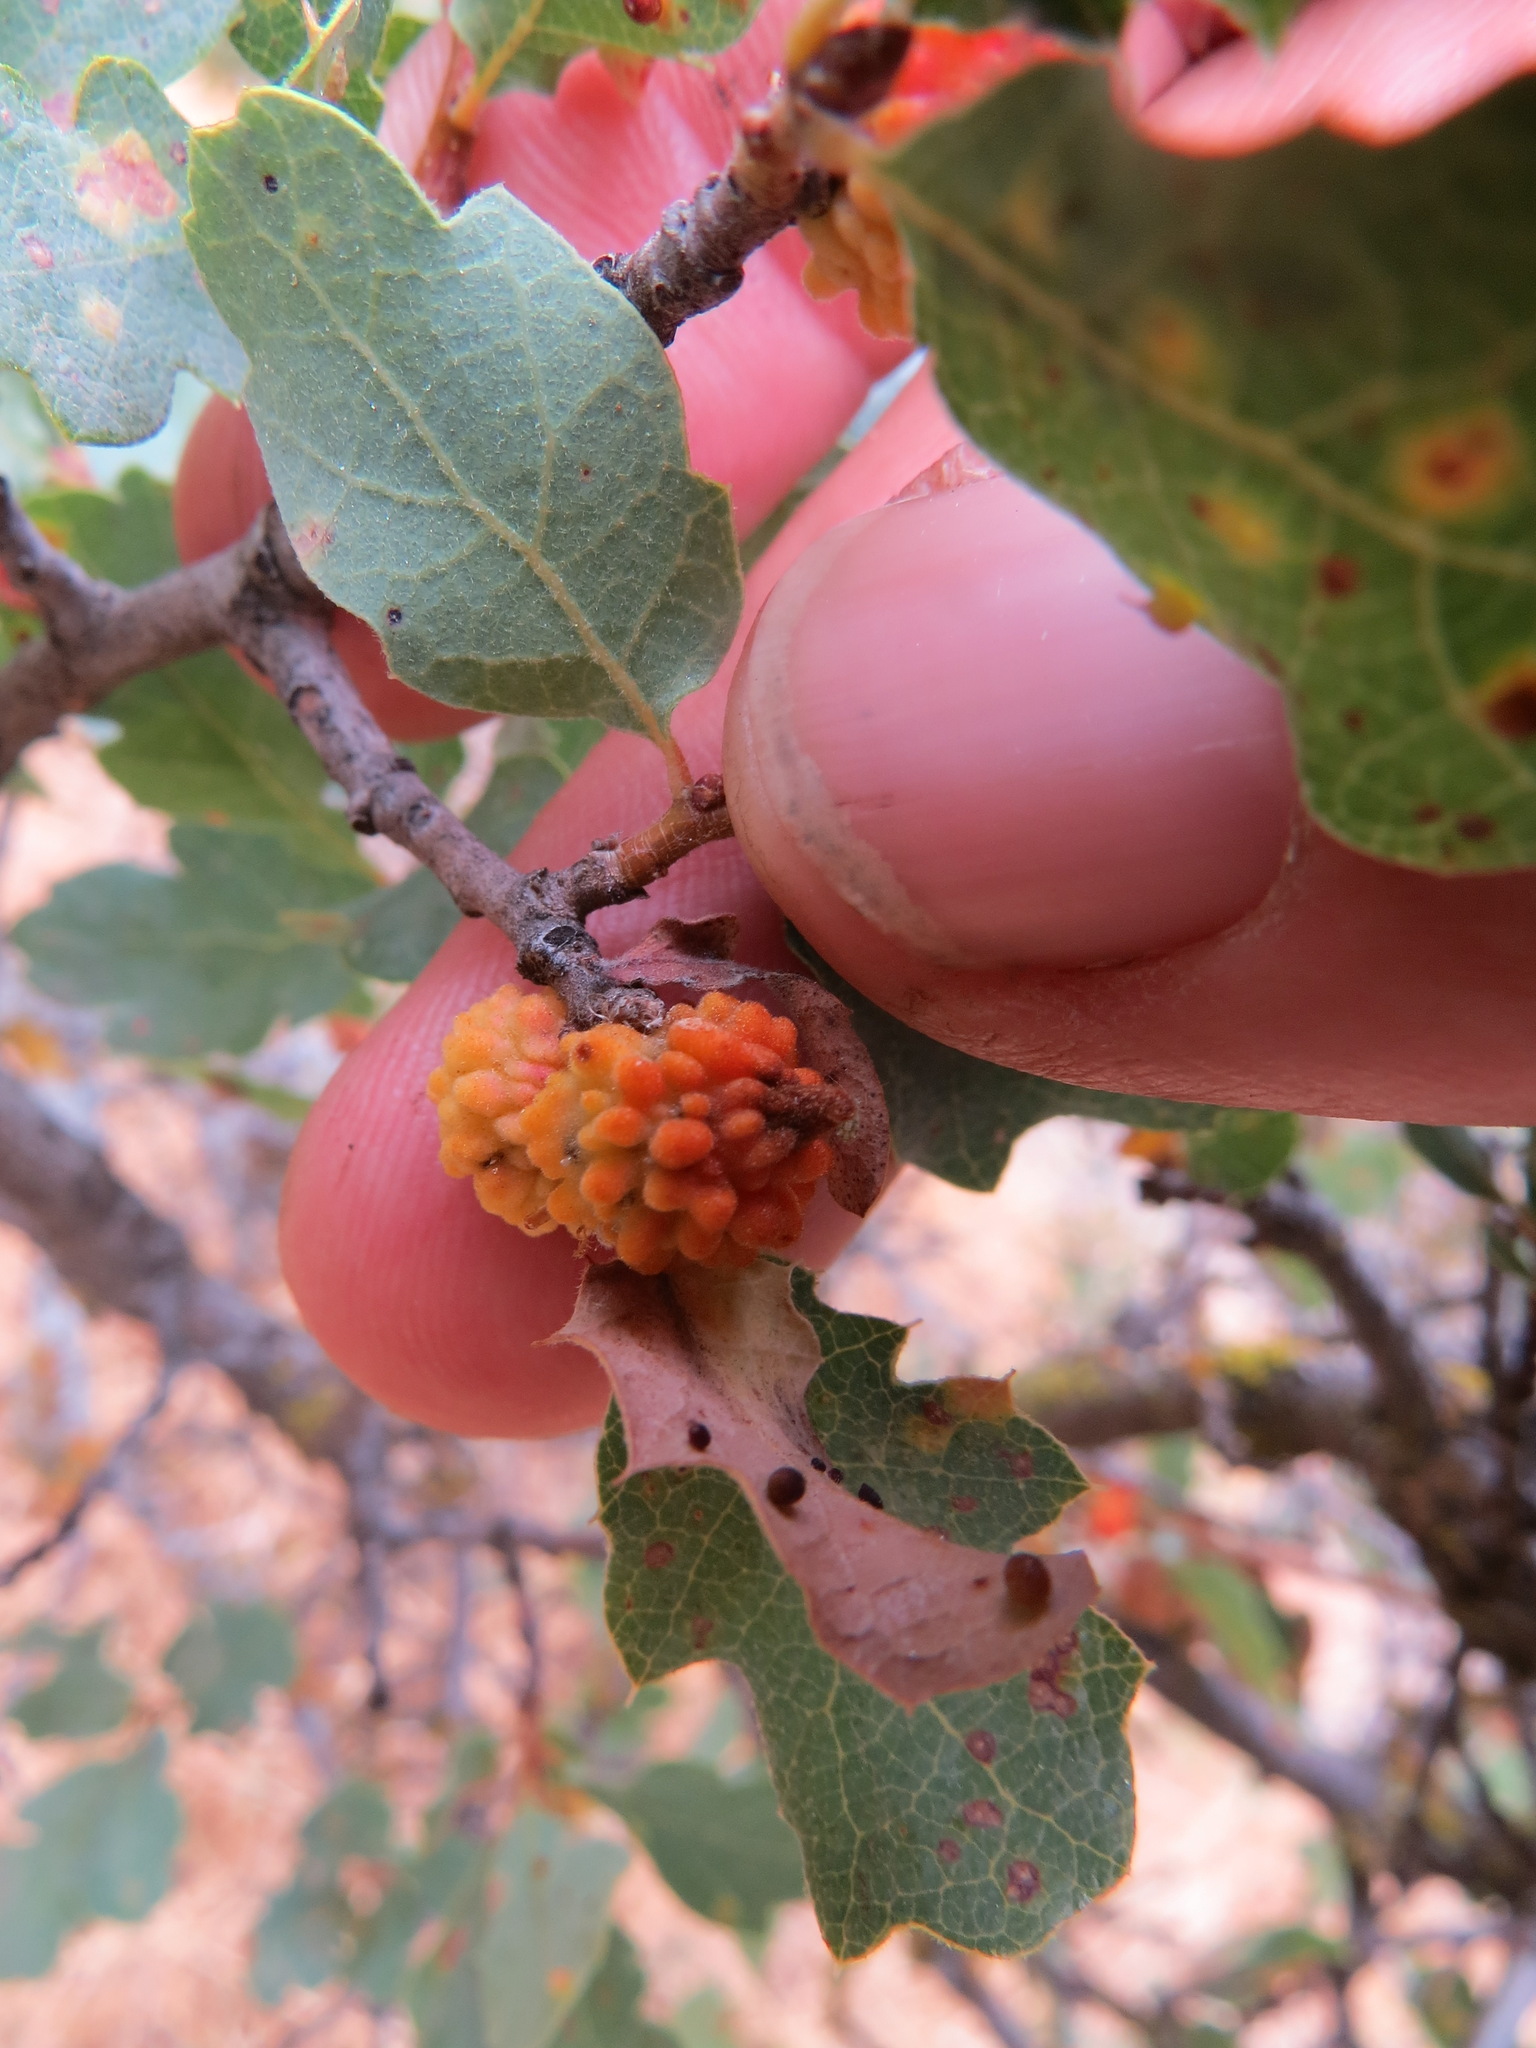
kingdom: Animalia
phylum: Arthropoda
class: Insecta
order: Hymenoptera
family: Cynipidae
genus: Burnettweldia
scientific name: Burnettweldia
